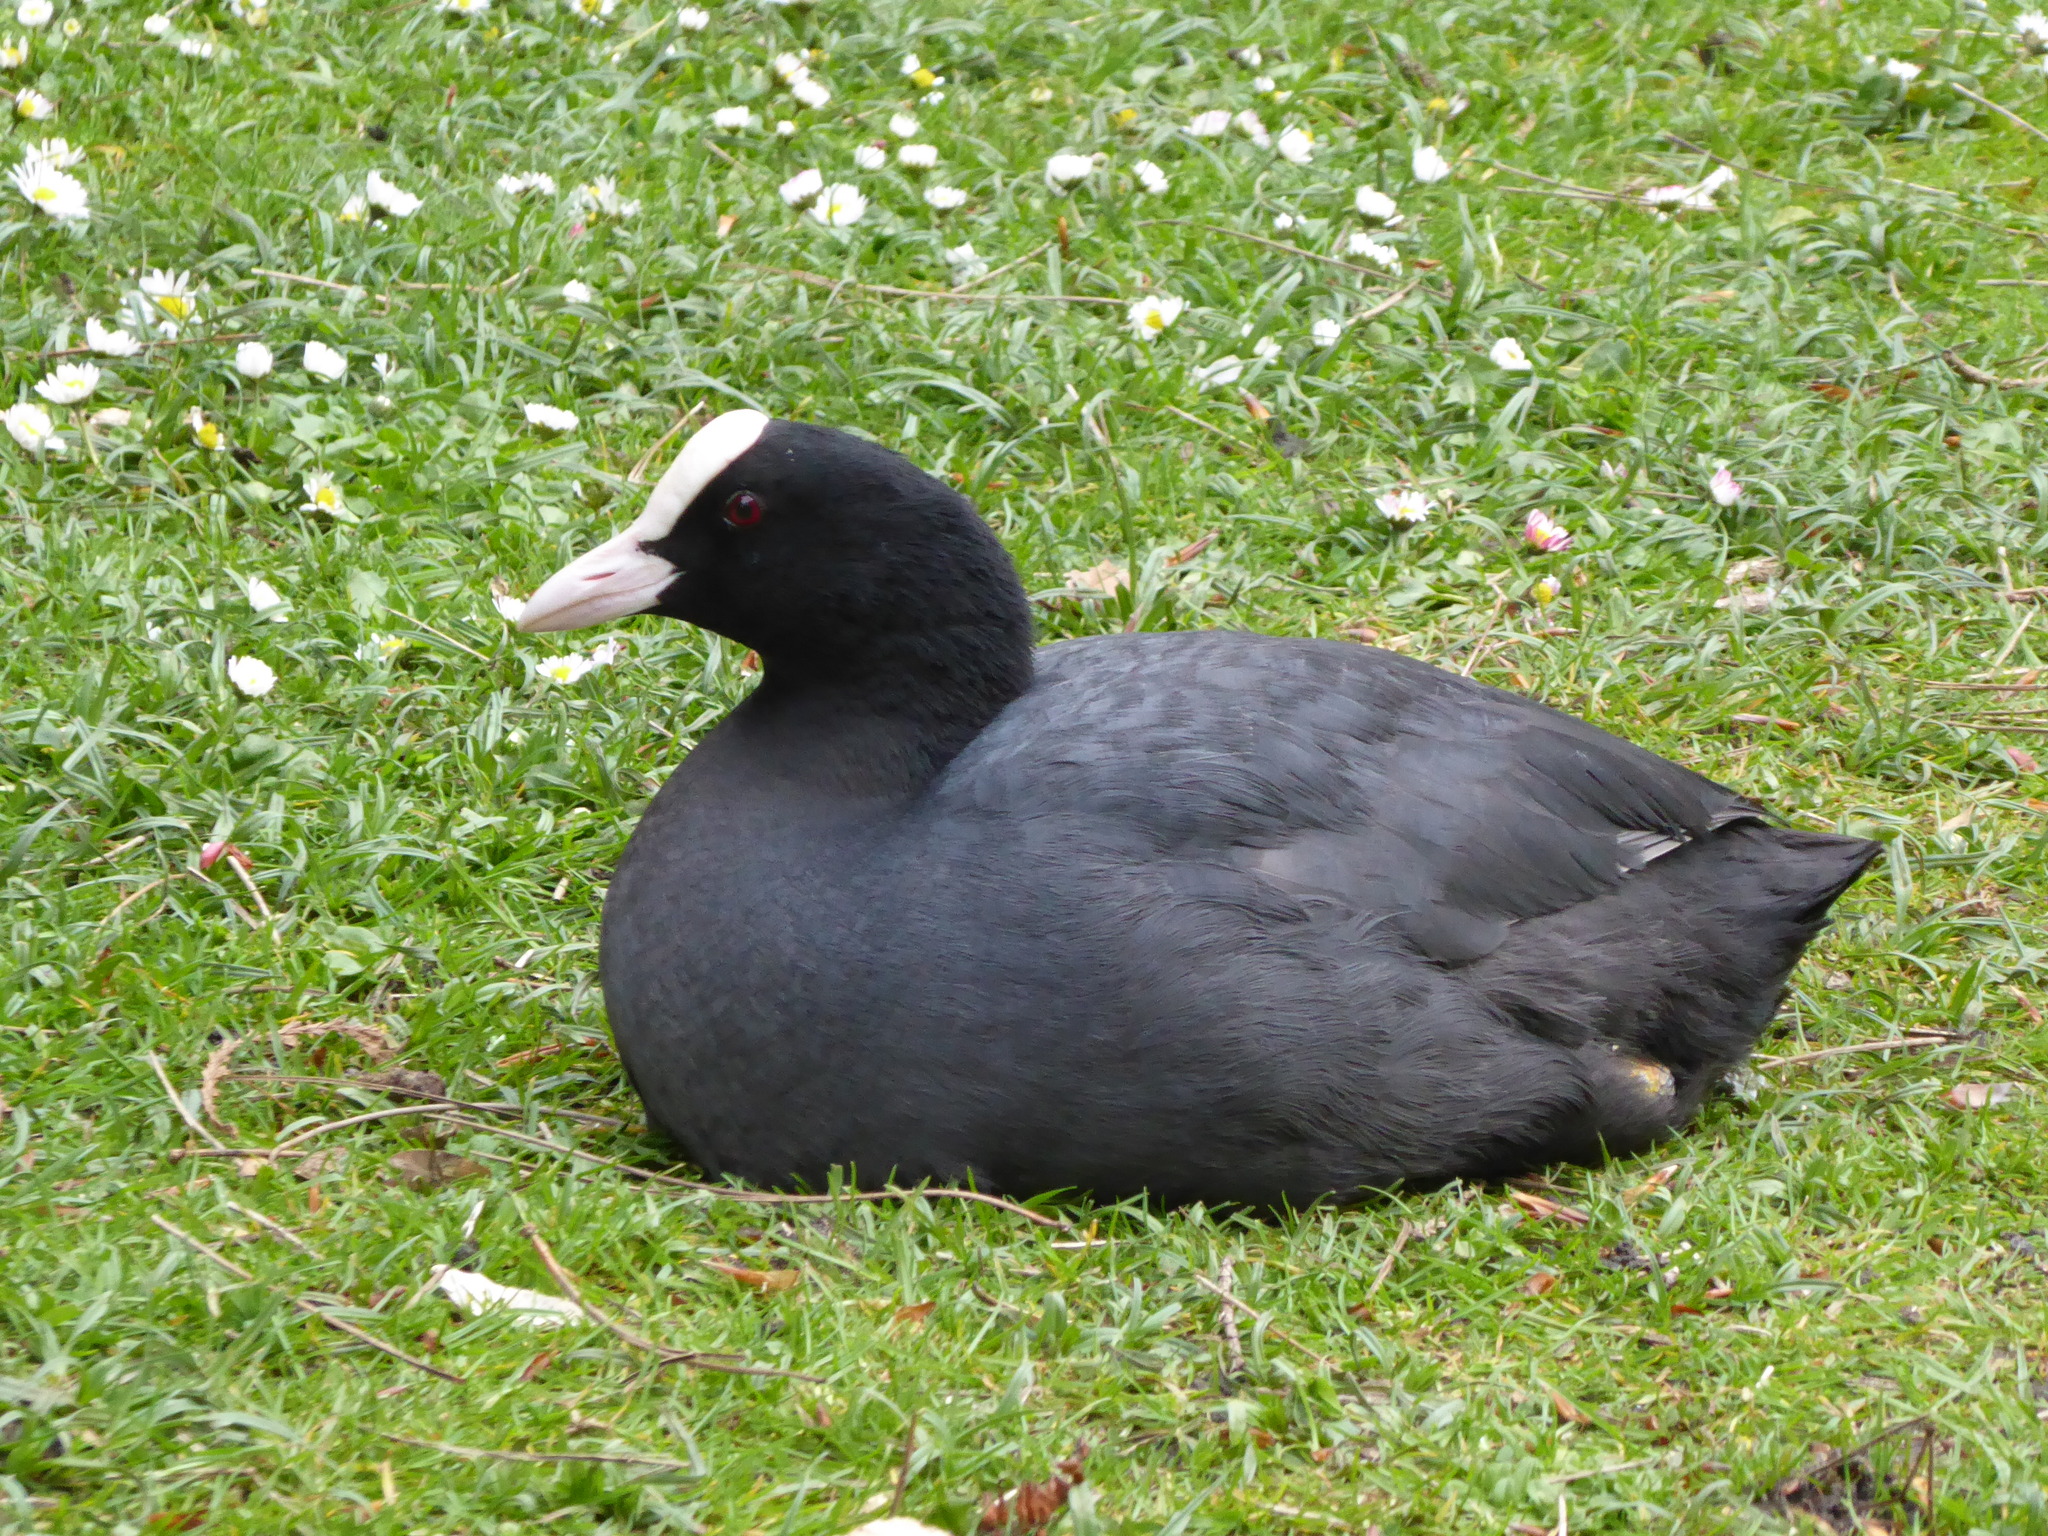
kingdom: Animalia
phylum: Chordata
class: Aves
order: Gruiformes
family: Rallidae
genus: Fulica
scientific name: Fulica atra
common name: Eurasian coot
